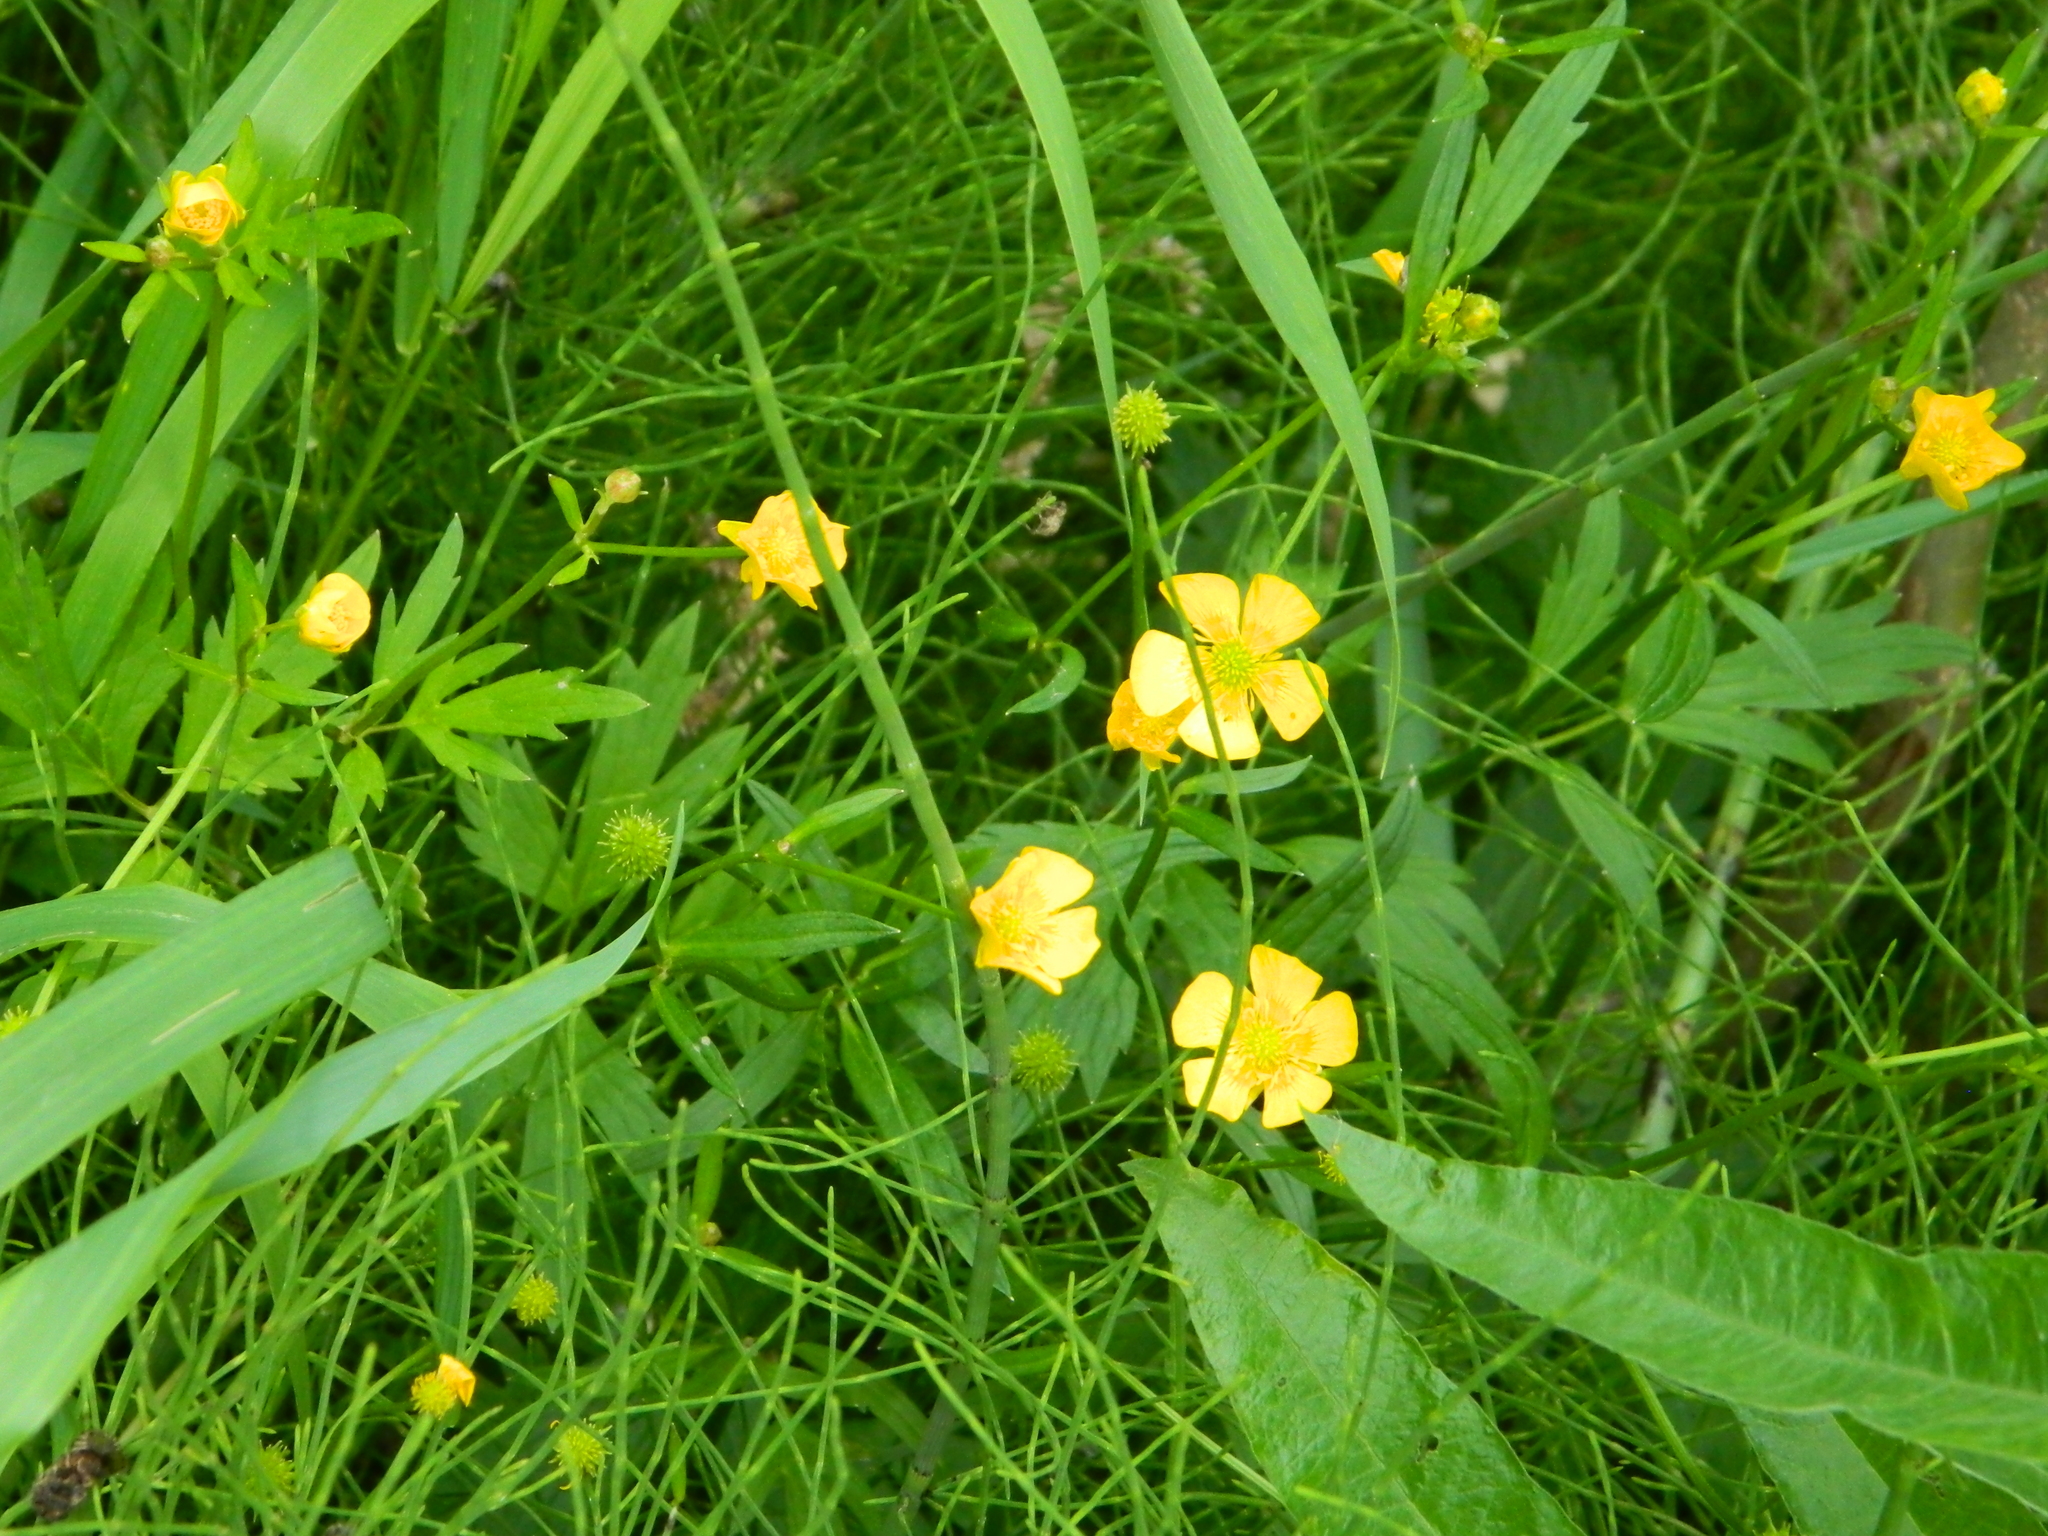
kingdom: Plantae
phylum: Tracheophyta
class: Magnoliopsida
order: Ranunculales
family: Ranunculaceae
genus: Ranunculus
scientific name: Ranunculus repens
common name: Creeping buttercup
